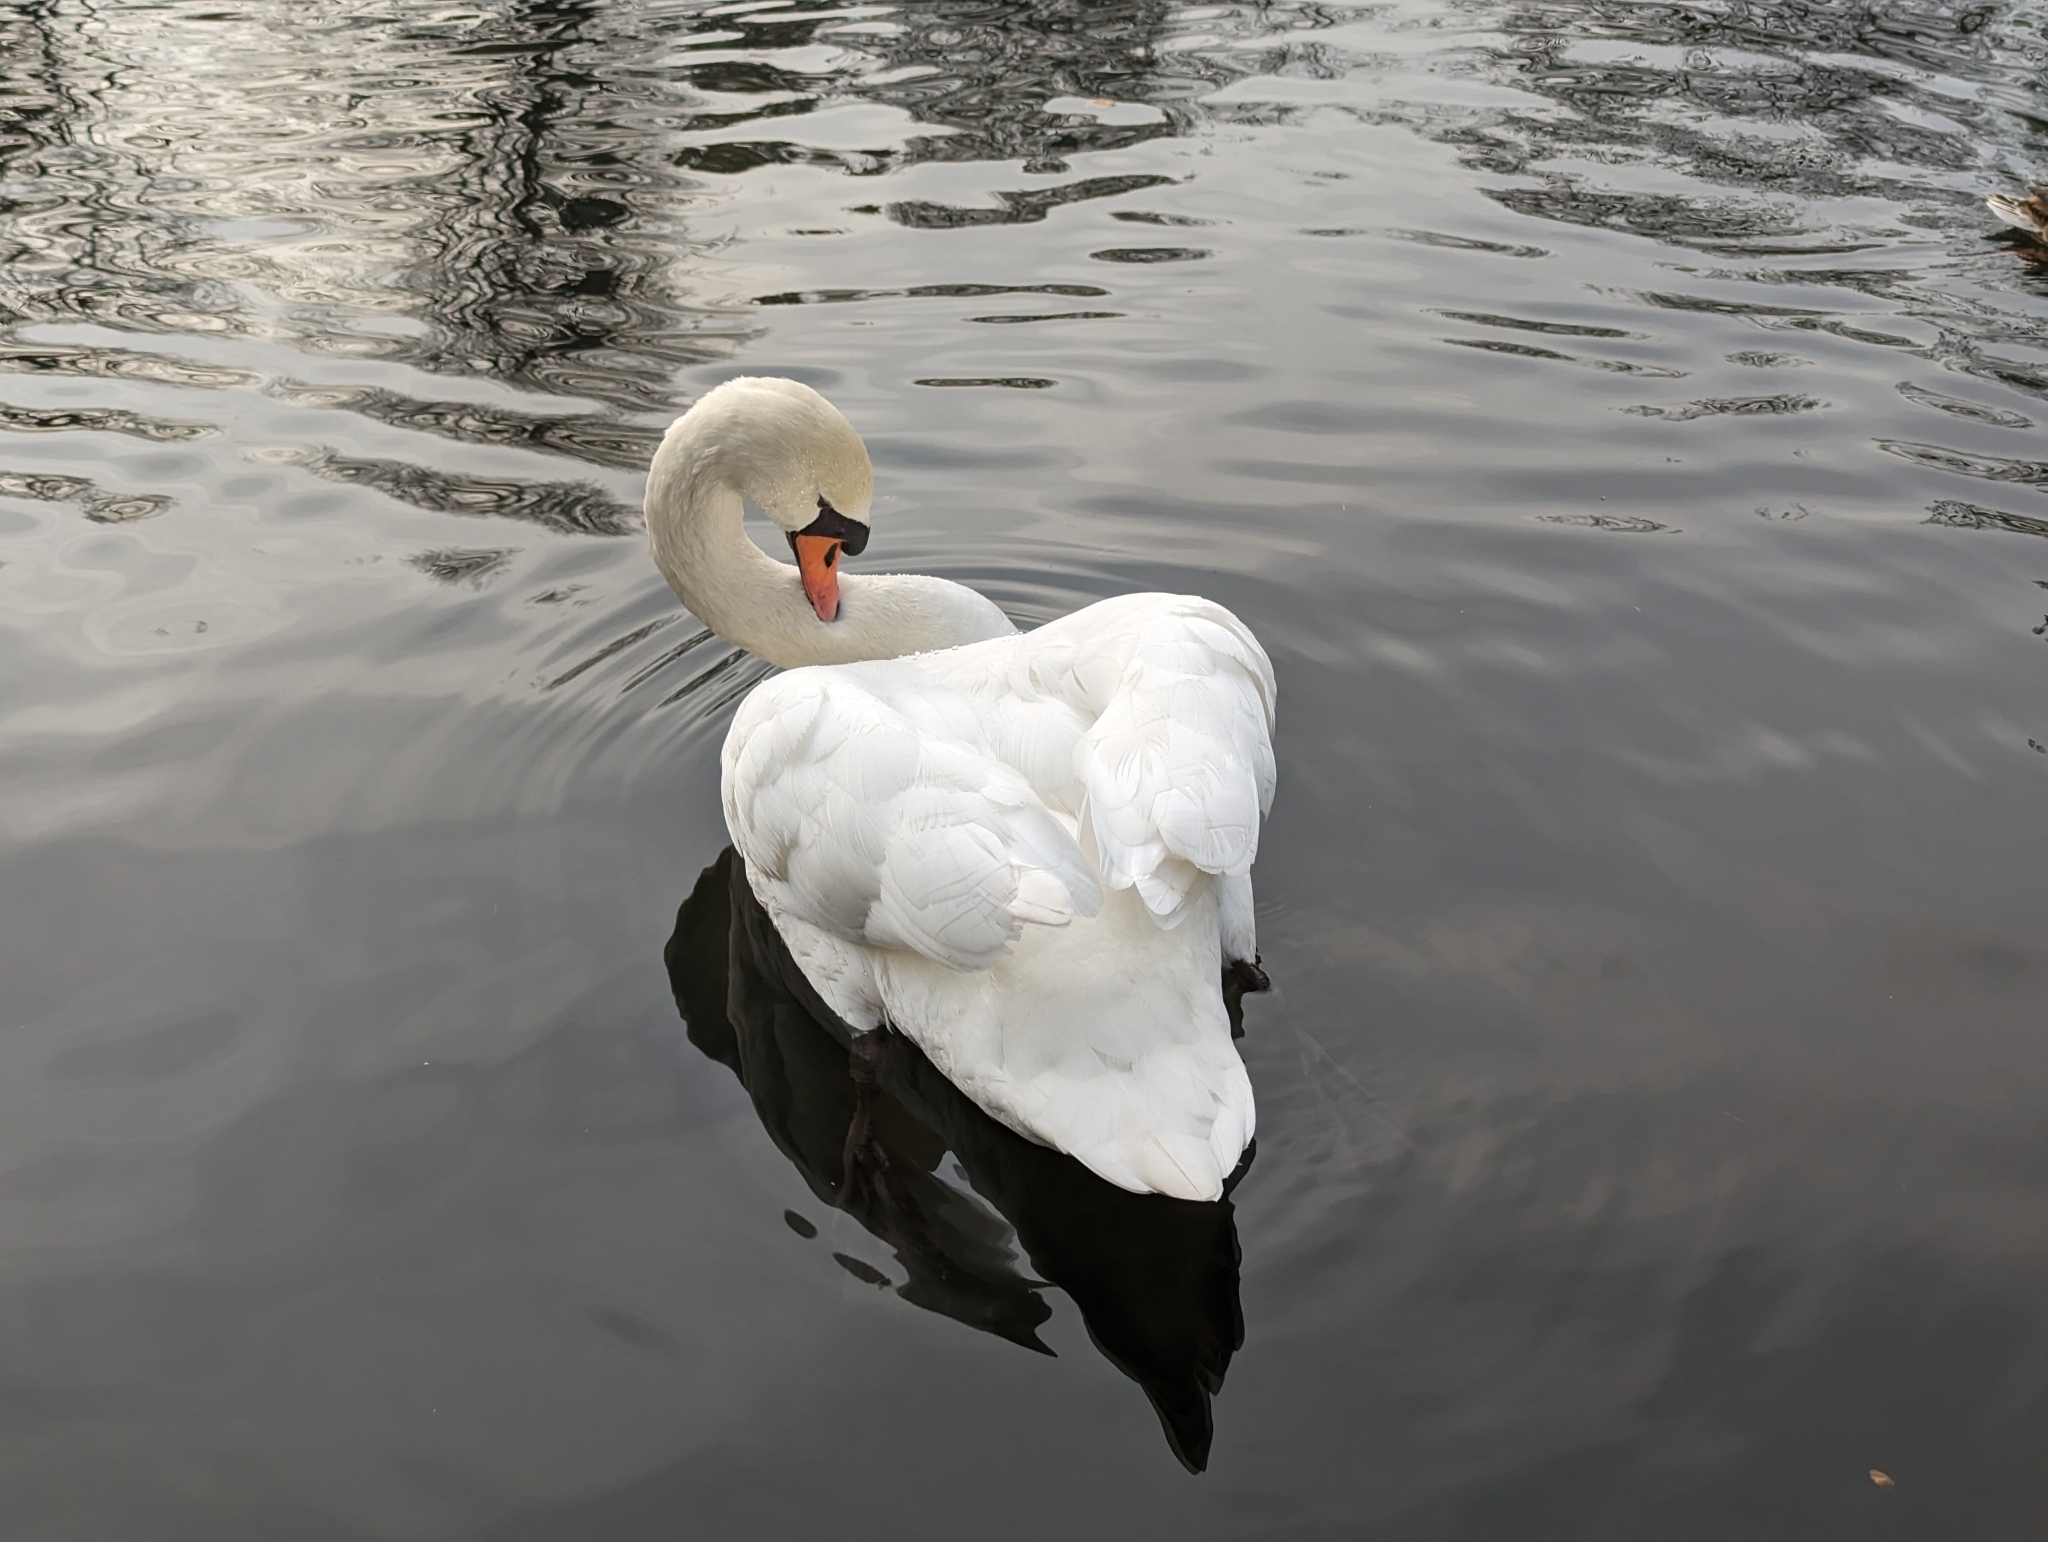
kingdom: Animalia
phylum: Chordata
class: Aves
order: Anseriformes
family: Anatidae
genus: Cygnus
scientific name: Cygnus olor
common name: Mute swan
